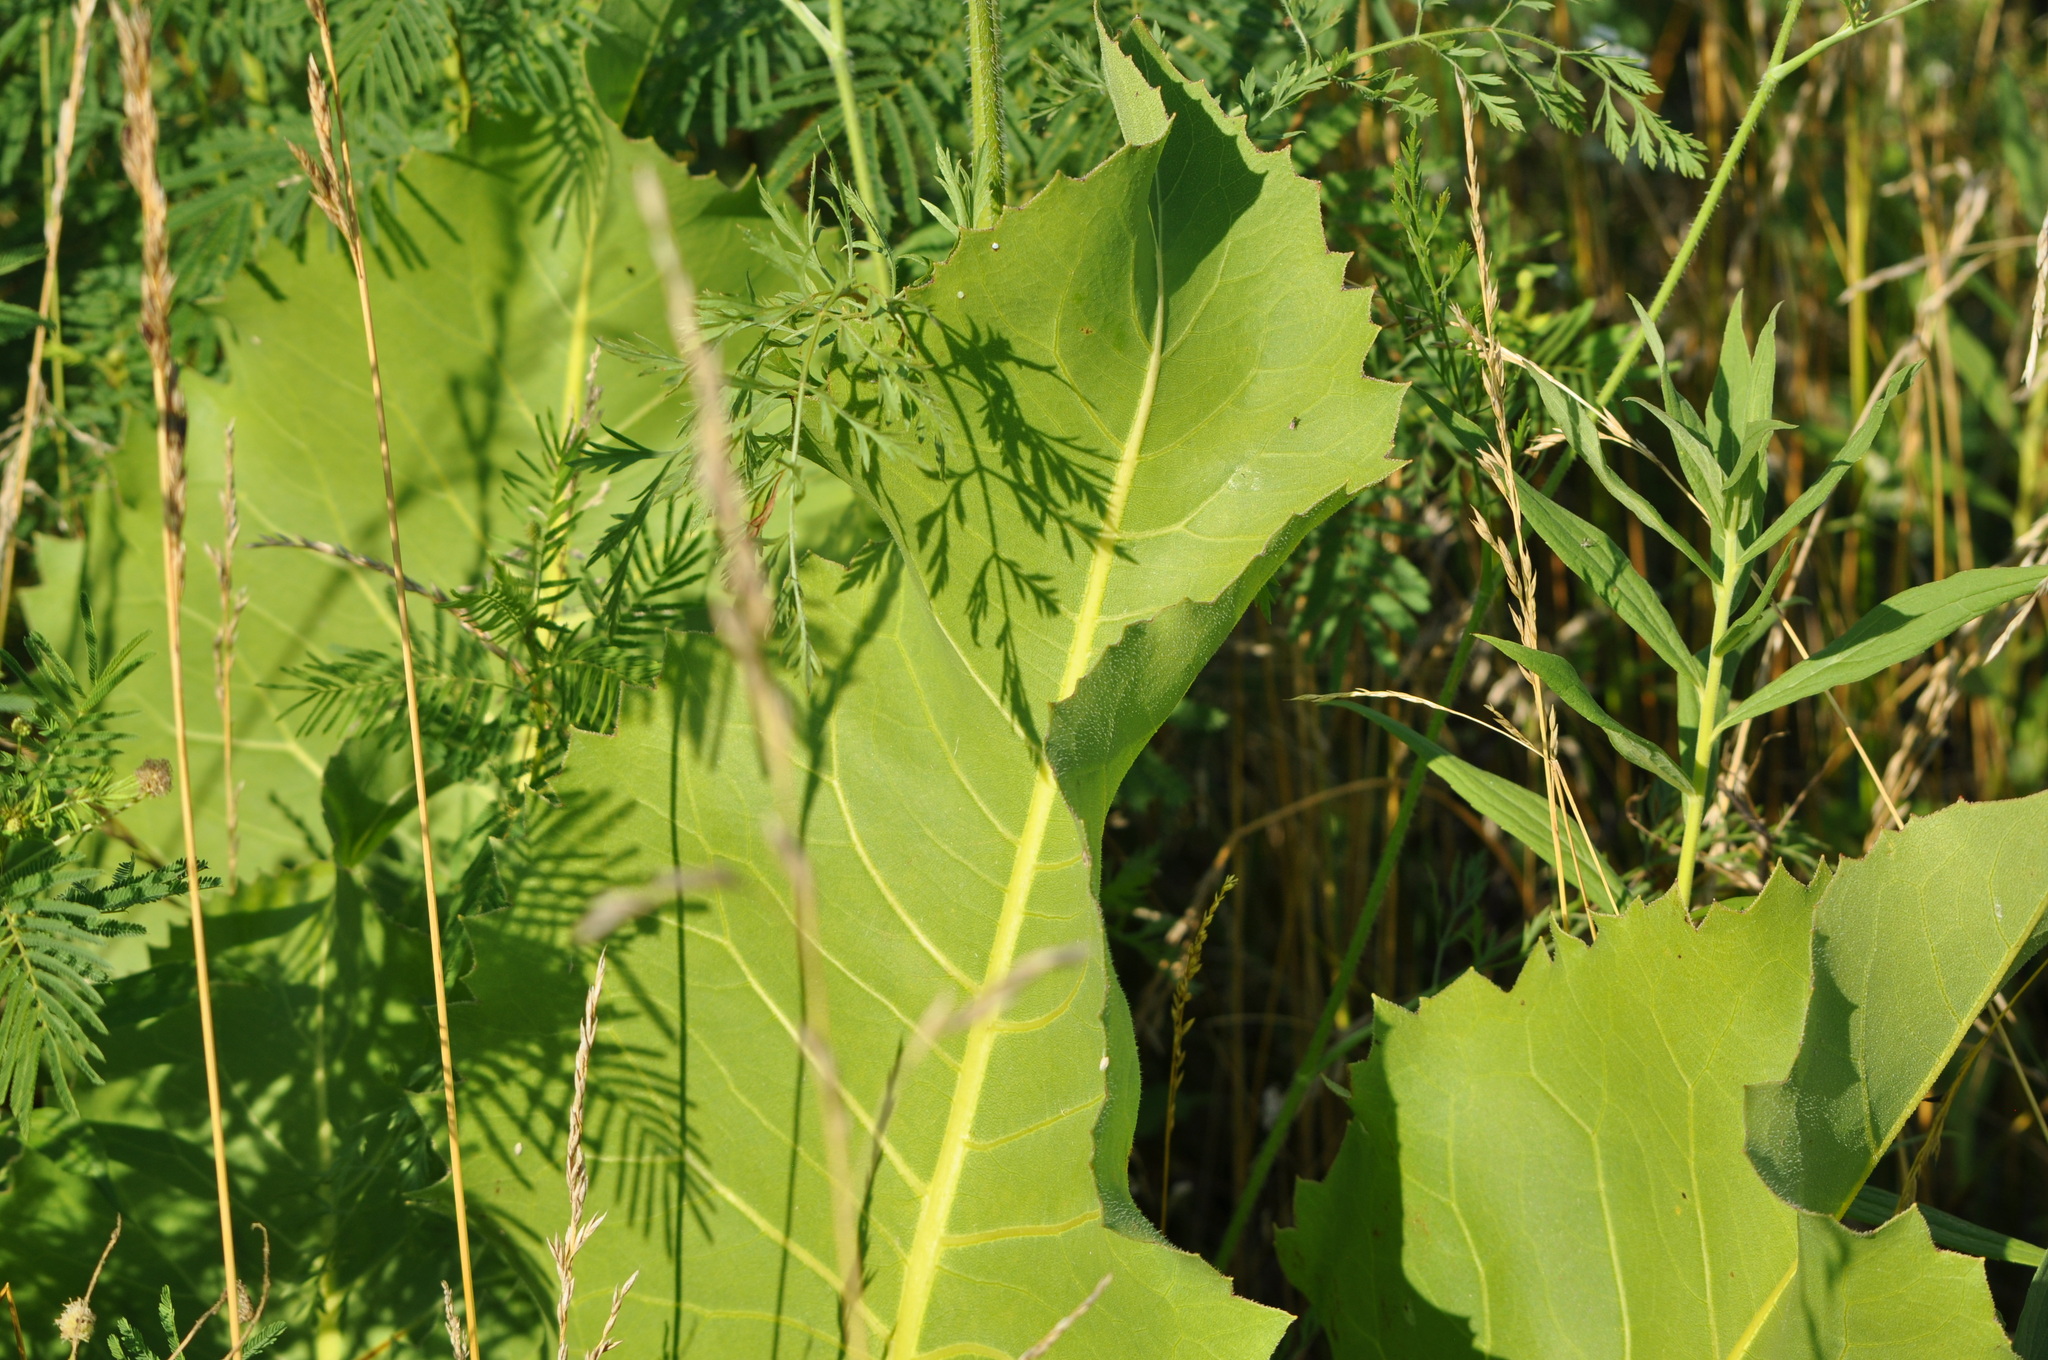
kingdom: Plantae
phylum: Tracheophyta
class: Magnoliopsida
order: Asterales
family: Asteraceae
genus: Silphium
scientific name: Silphium terebinthinaceum
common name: Basal-leaf rosinweed
